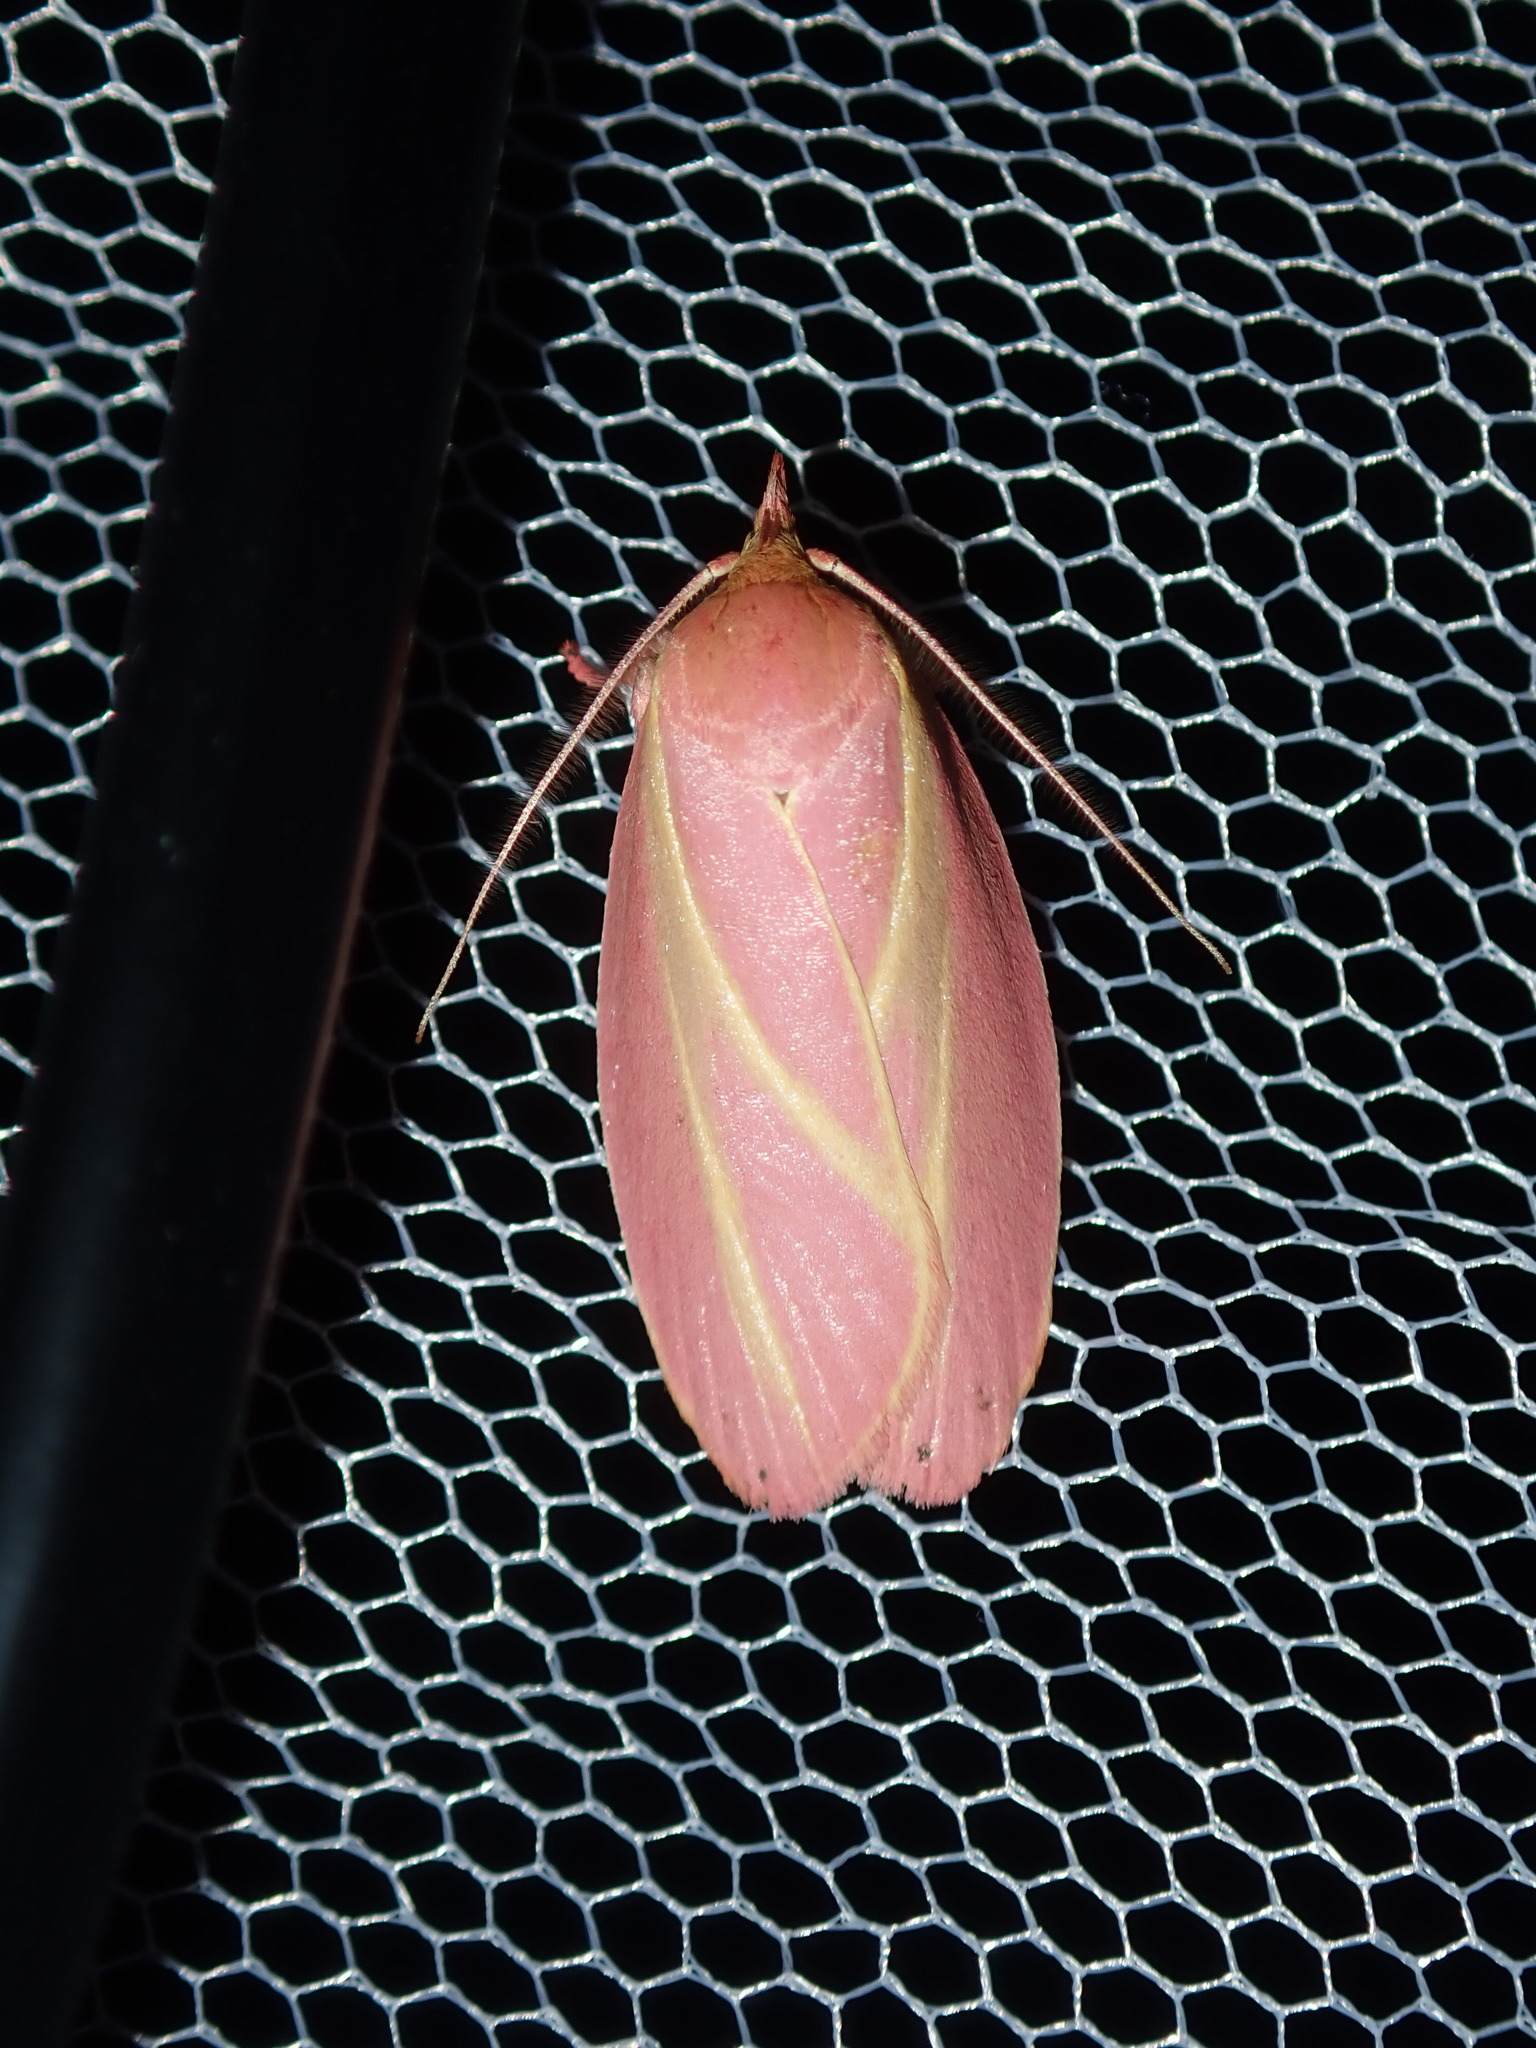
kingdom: Animalia
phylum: Arthropoda
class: Insecta
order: Lepidoptera
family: Oecophoridae
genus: Wingia
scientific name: Wingia lambertella
